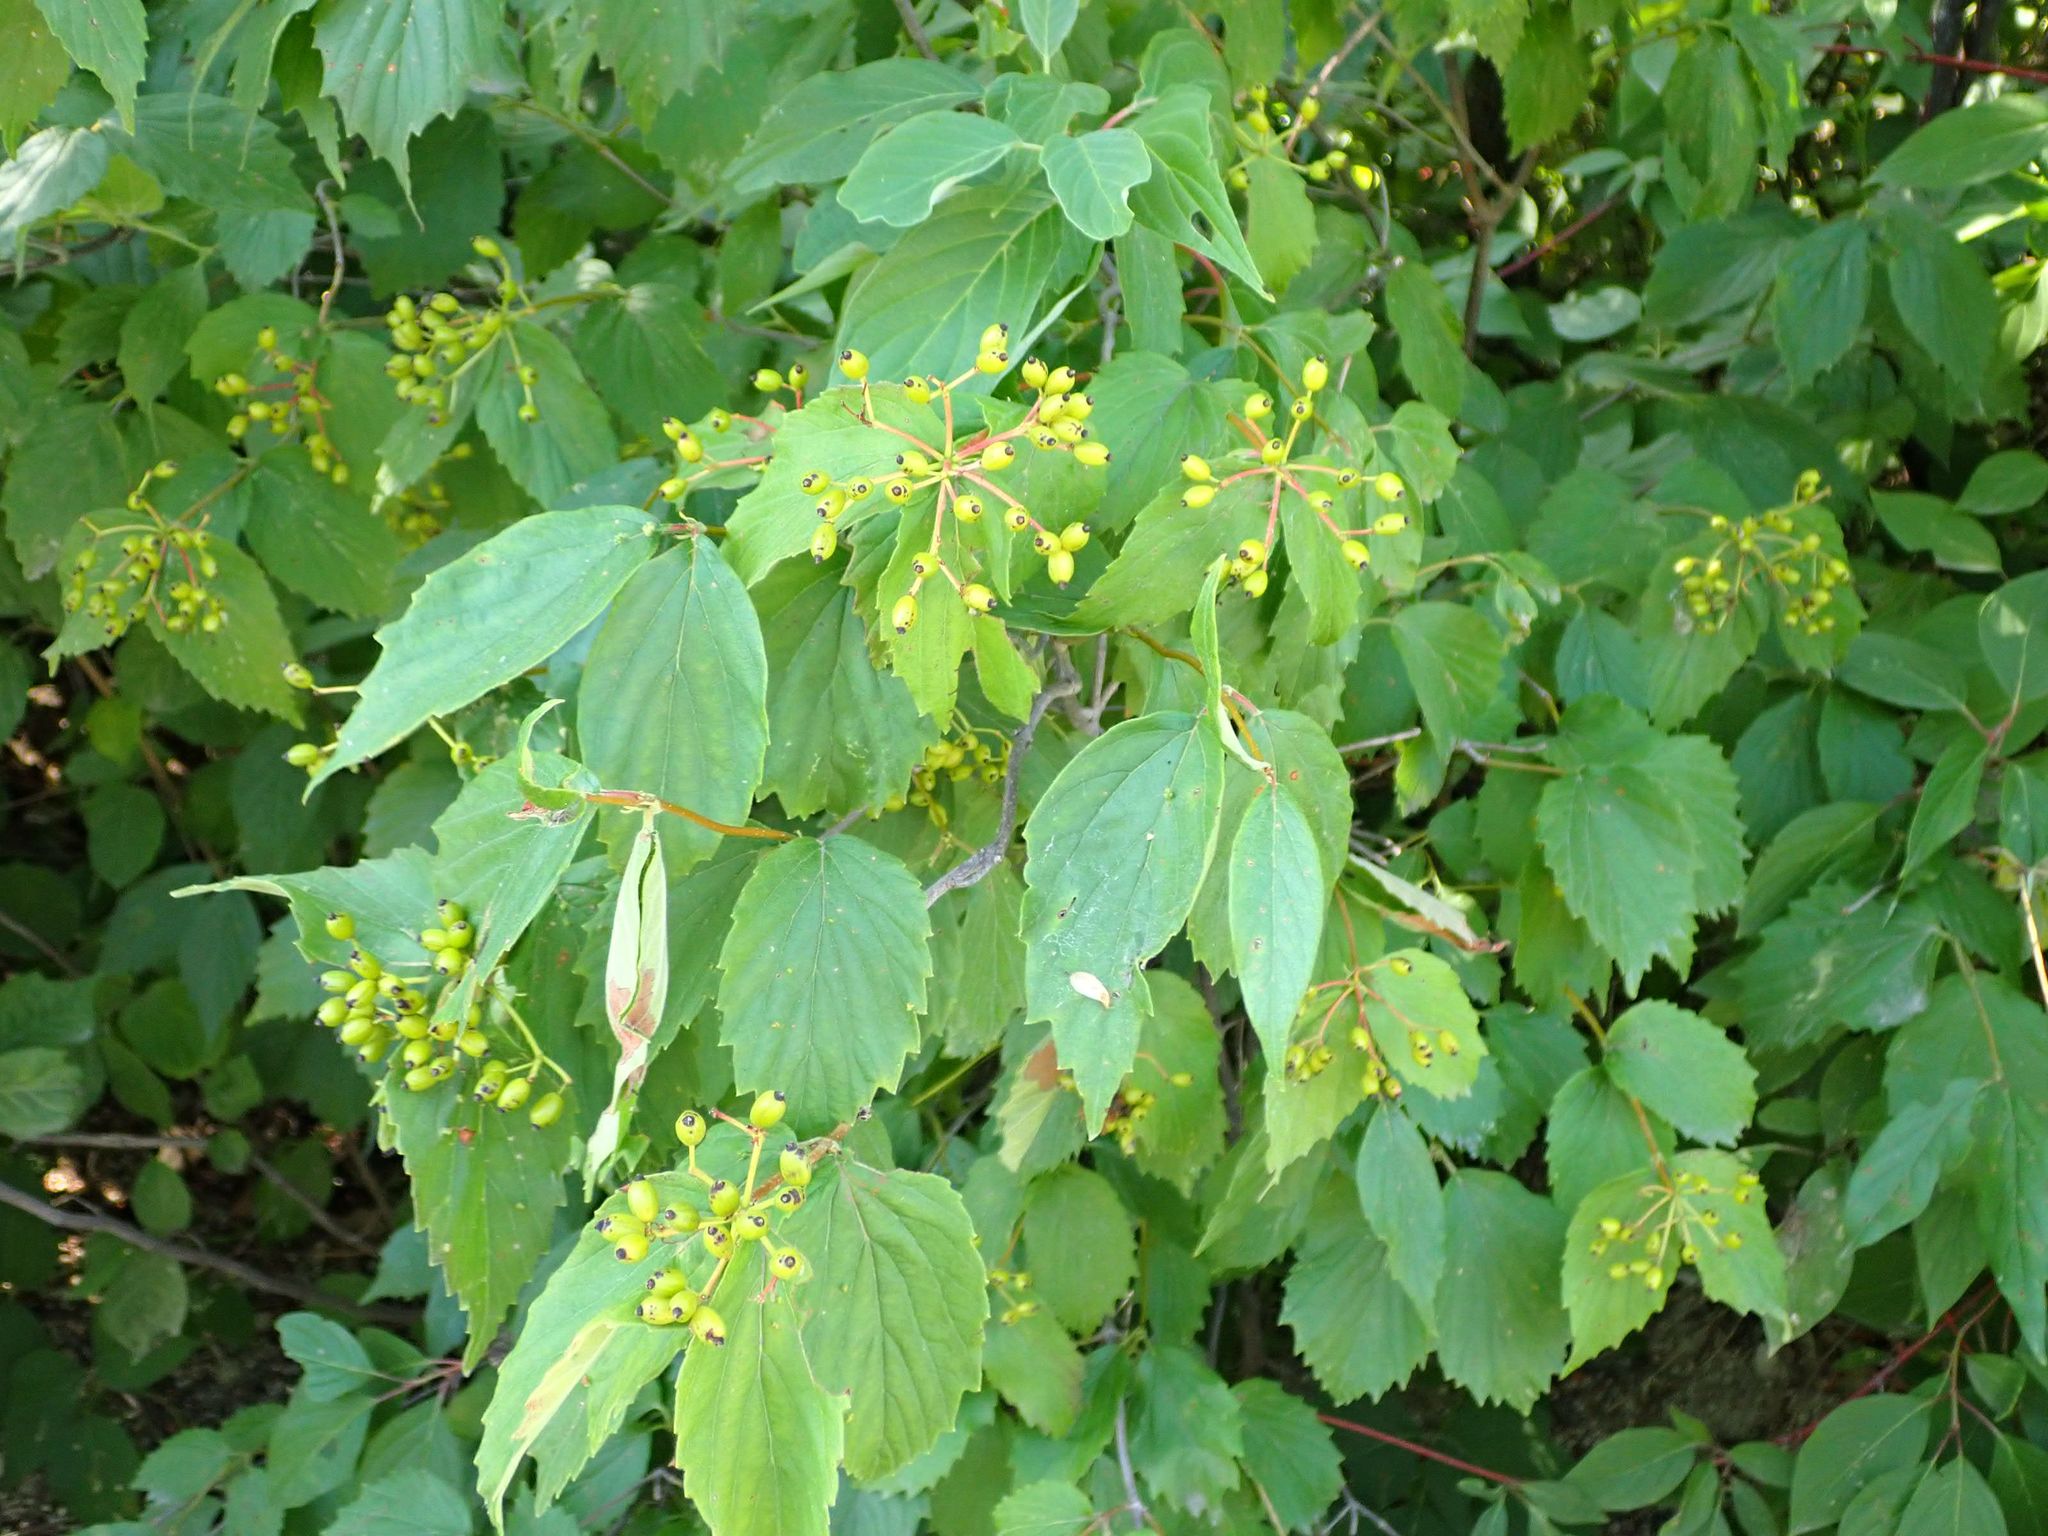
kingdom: Plantae
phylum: Tracheophyta
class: Magnoliopsida
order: Dipsacales
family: Viburnaceae
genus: Viburnum
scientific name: Viburnum rafinesqueanum
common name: Downy arrow-wood
